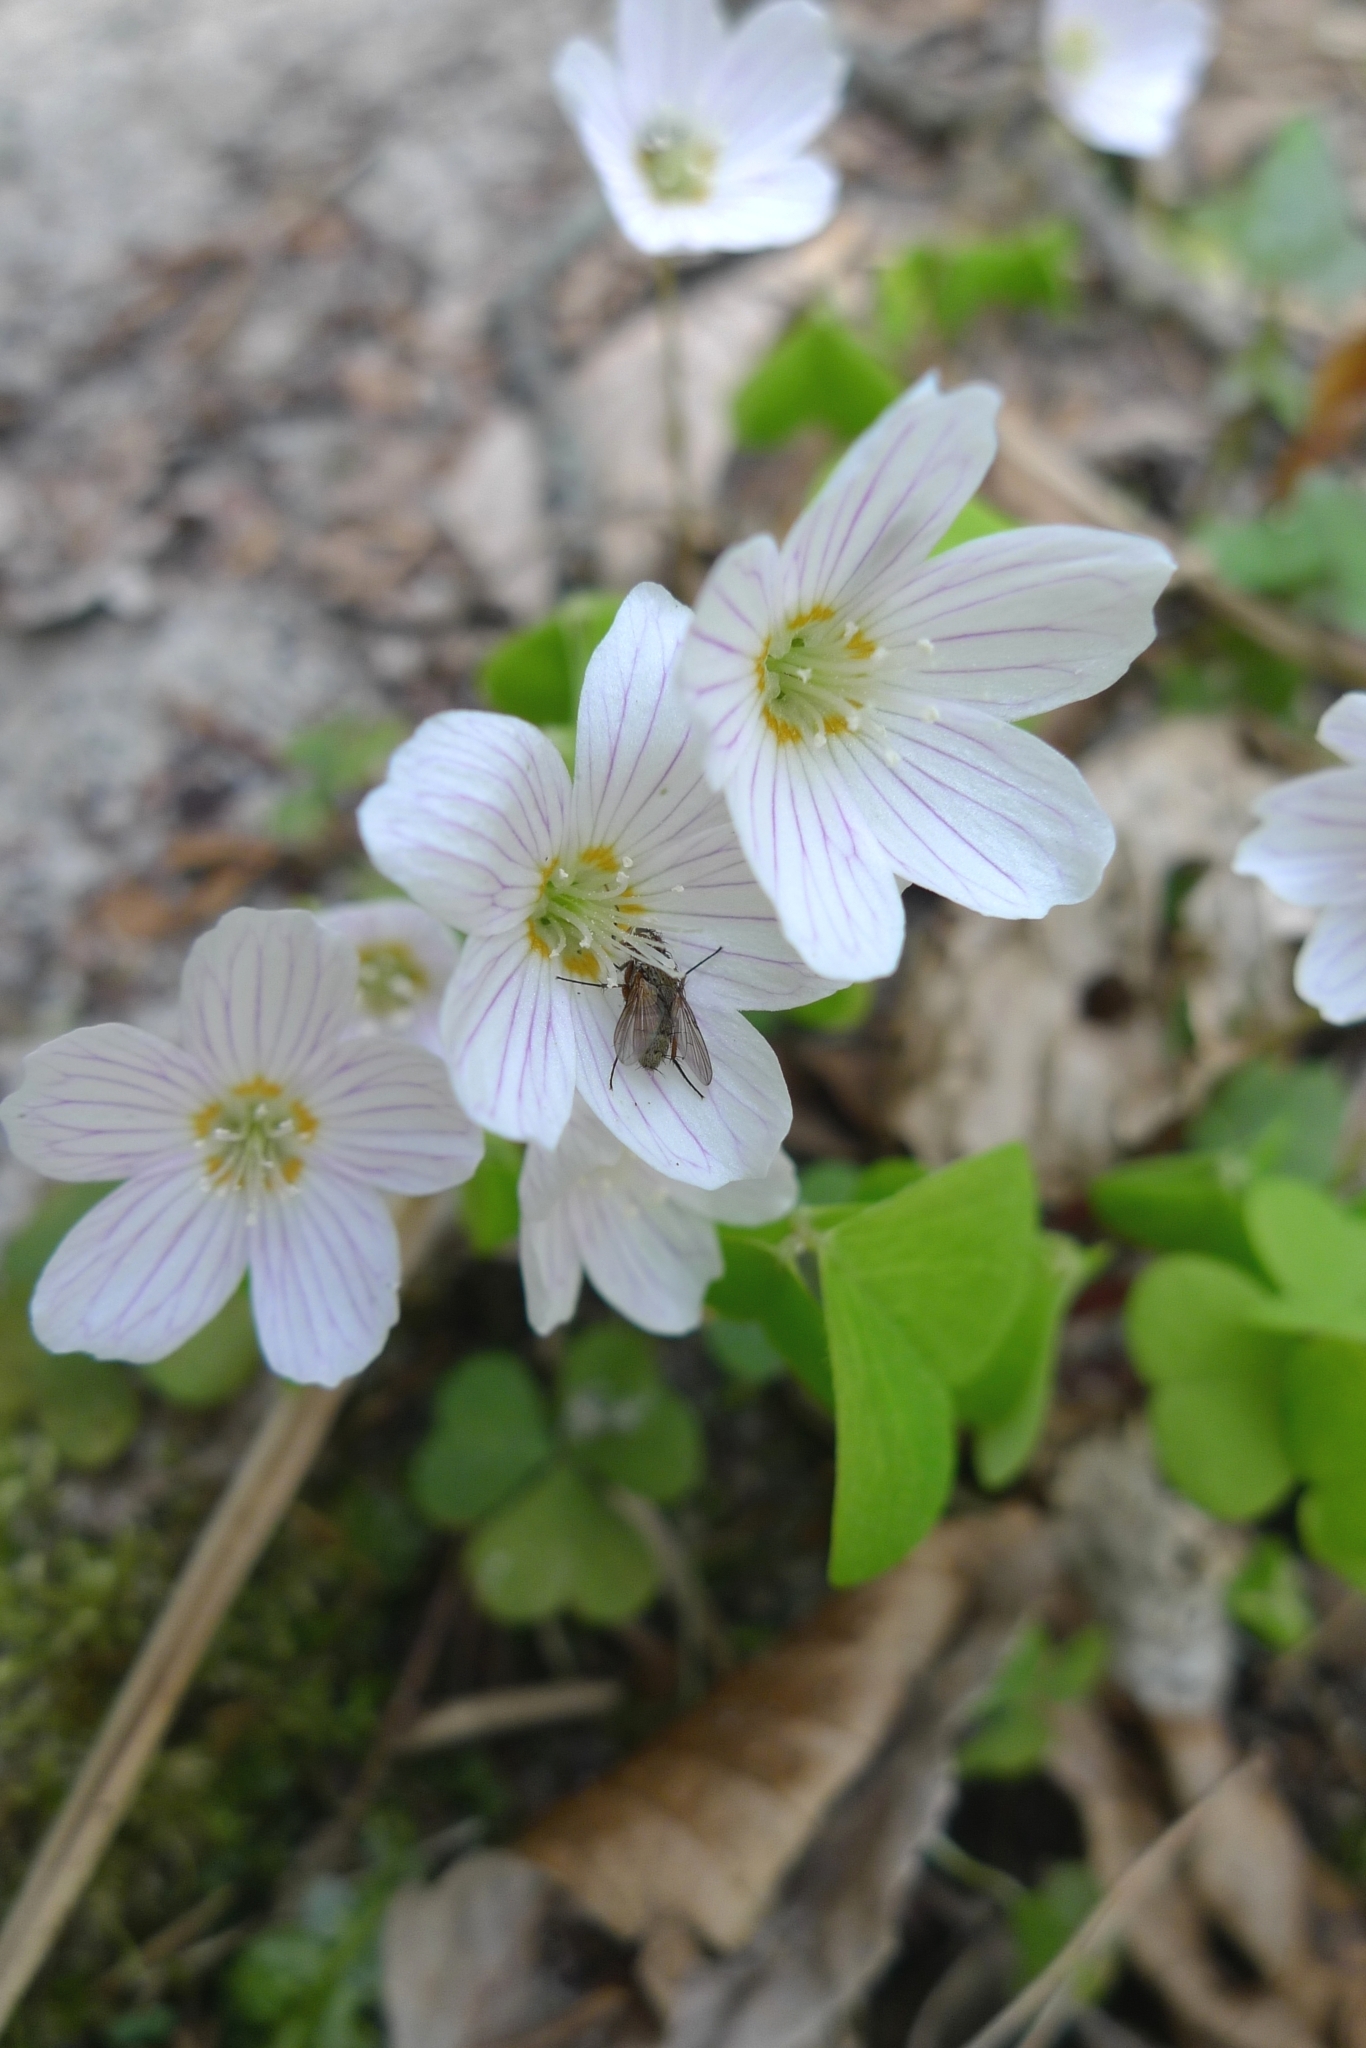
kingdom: Plantae
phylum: Tracheophyta
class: Magnoliopsida
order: Oxalidales
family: Oxalidaceae
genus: Oxalis
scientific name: Oxalis acetosella
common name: Wood-sorrel
